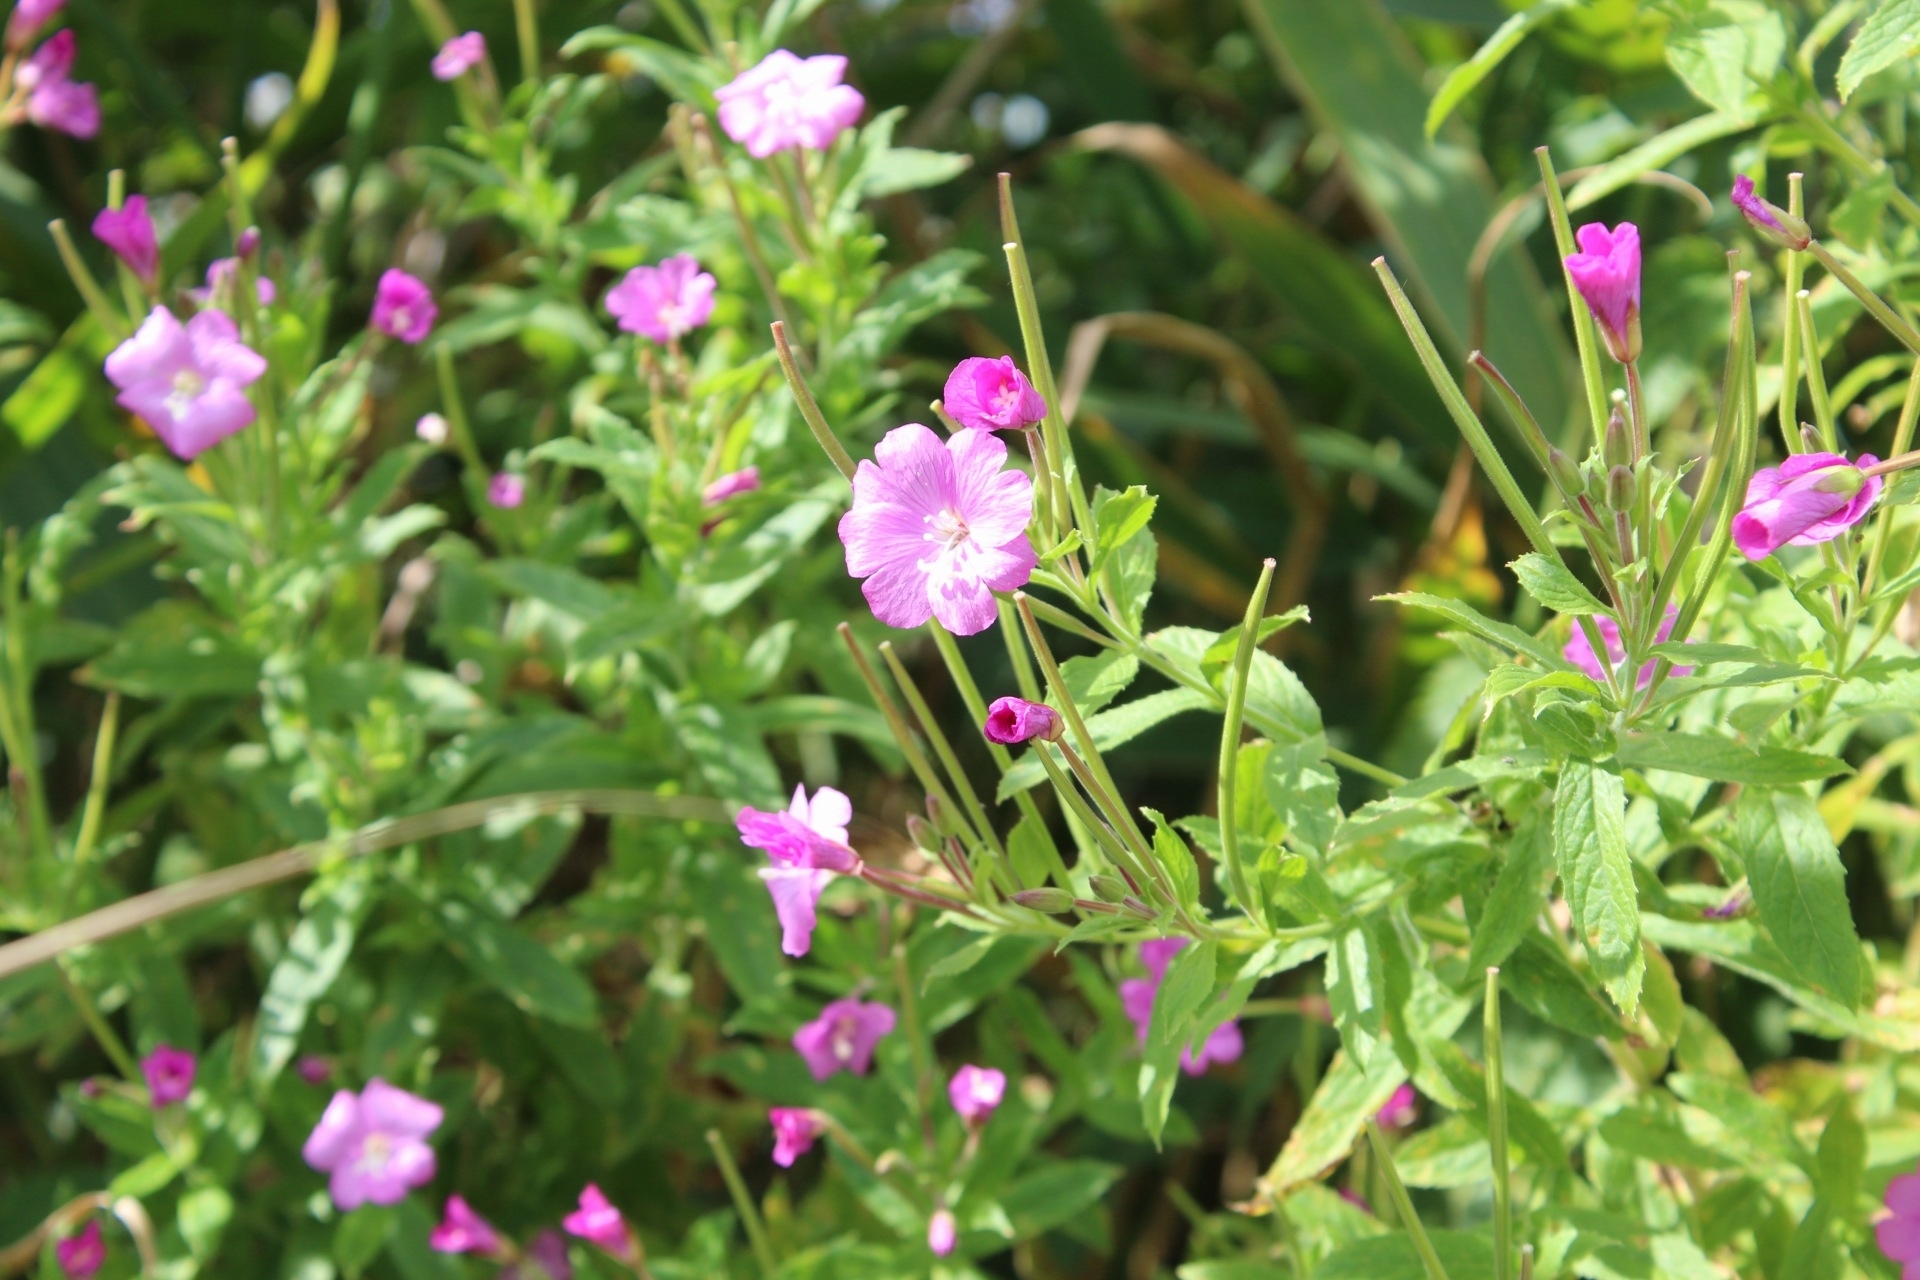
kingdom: Plantae
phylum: Tracheophyta
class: Magnoliopsida
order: Myrtales
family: Onagraceae
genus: Epilobium
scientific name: Epilobium hirsutum
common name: Great willowherb
